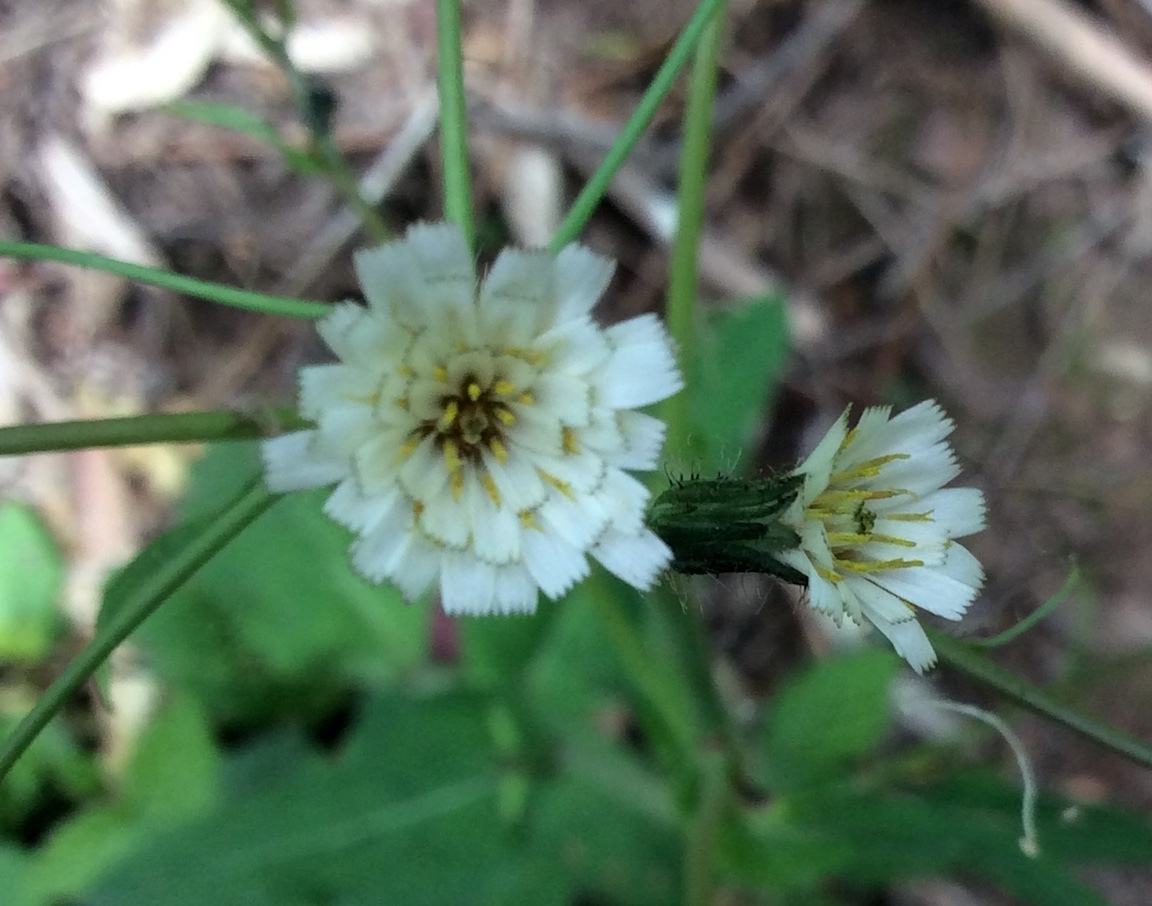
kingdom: Plantae
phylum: Tracheophyta
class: Magnoliopsida
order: Asterales
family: Asteraceae
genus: Hieracium
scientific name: Hieracium albiflorum
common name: White hawkweed
